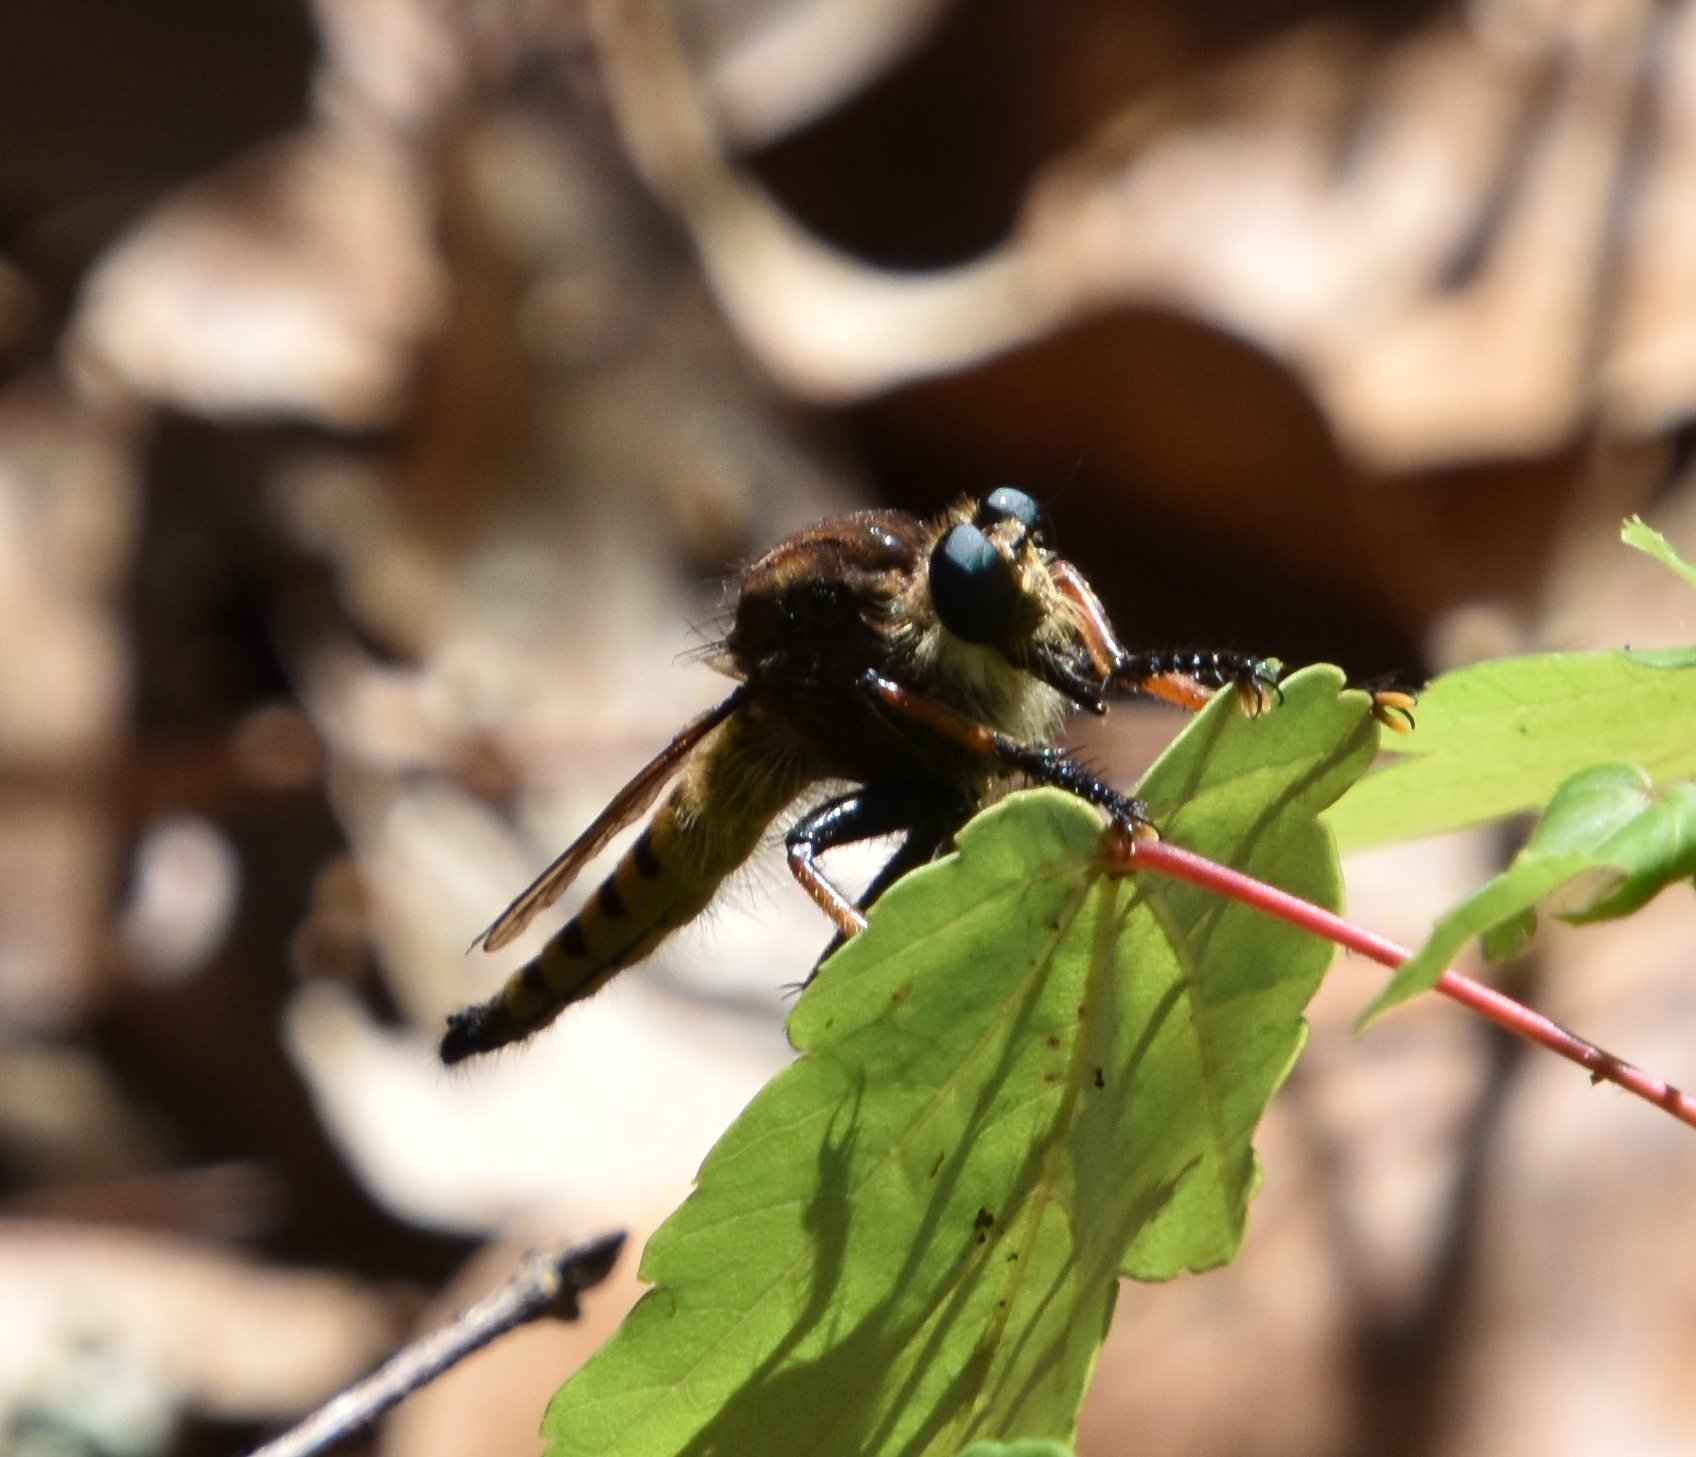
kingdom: Animalia
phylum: Arthropoda
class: Insecta
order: Diptera
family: Asilidae
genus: Promachus
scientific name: Promachus rufipes
